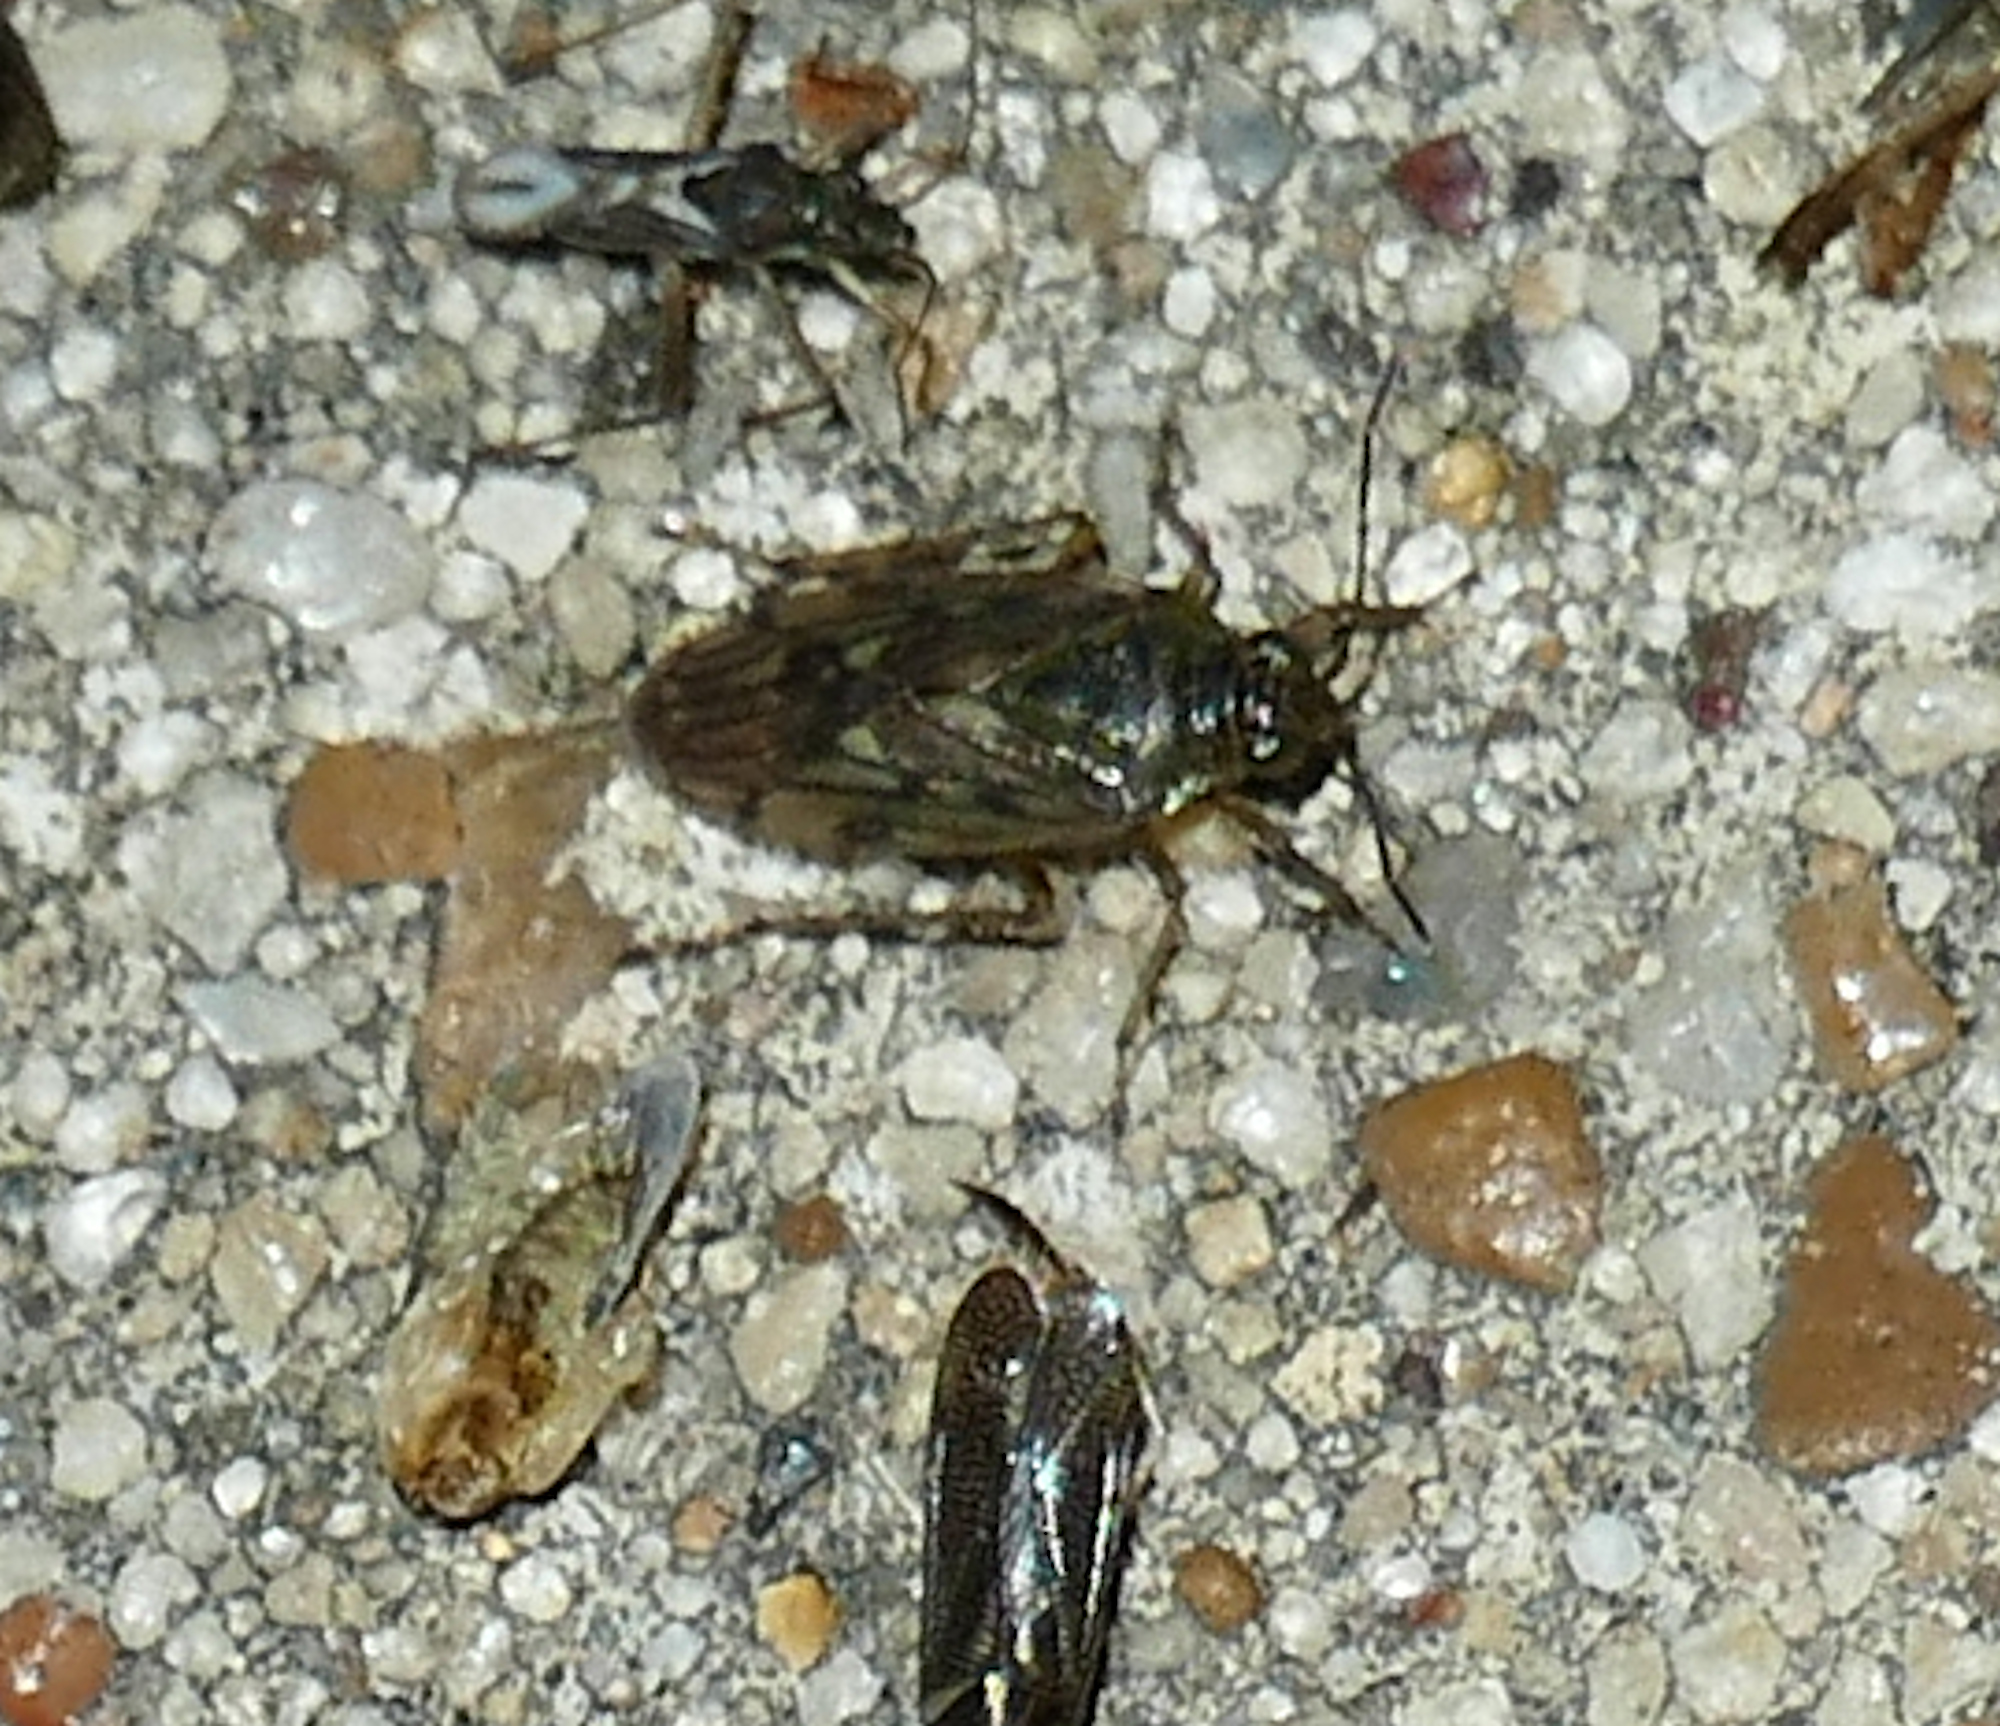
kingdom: Animalia
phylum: Arthropoda
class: Insecta
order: Hemiptera
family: Saldidae
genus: Pentacora
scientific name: Pentacora sphacelata
